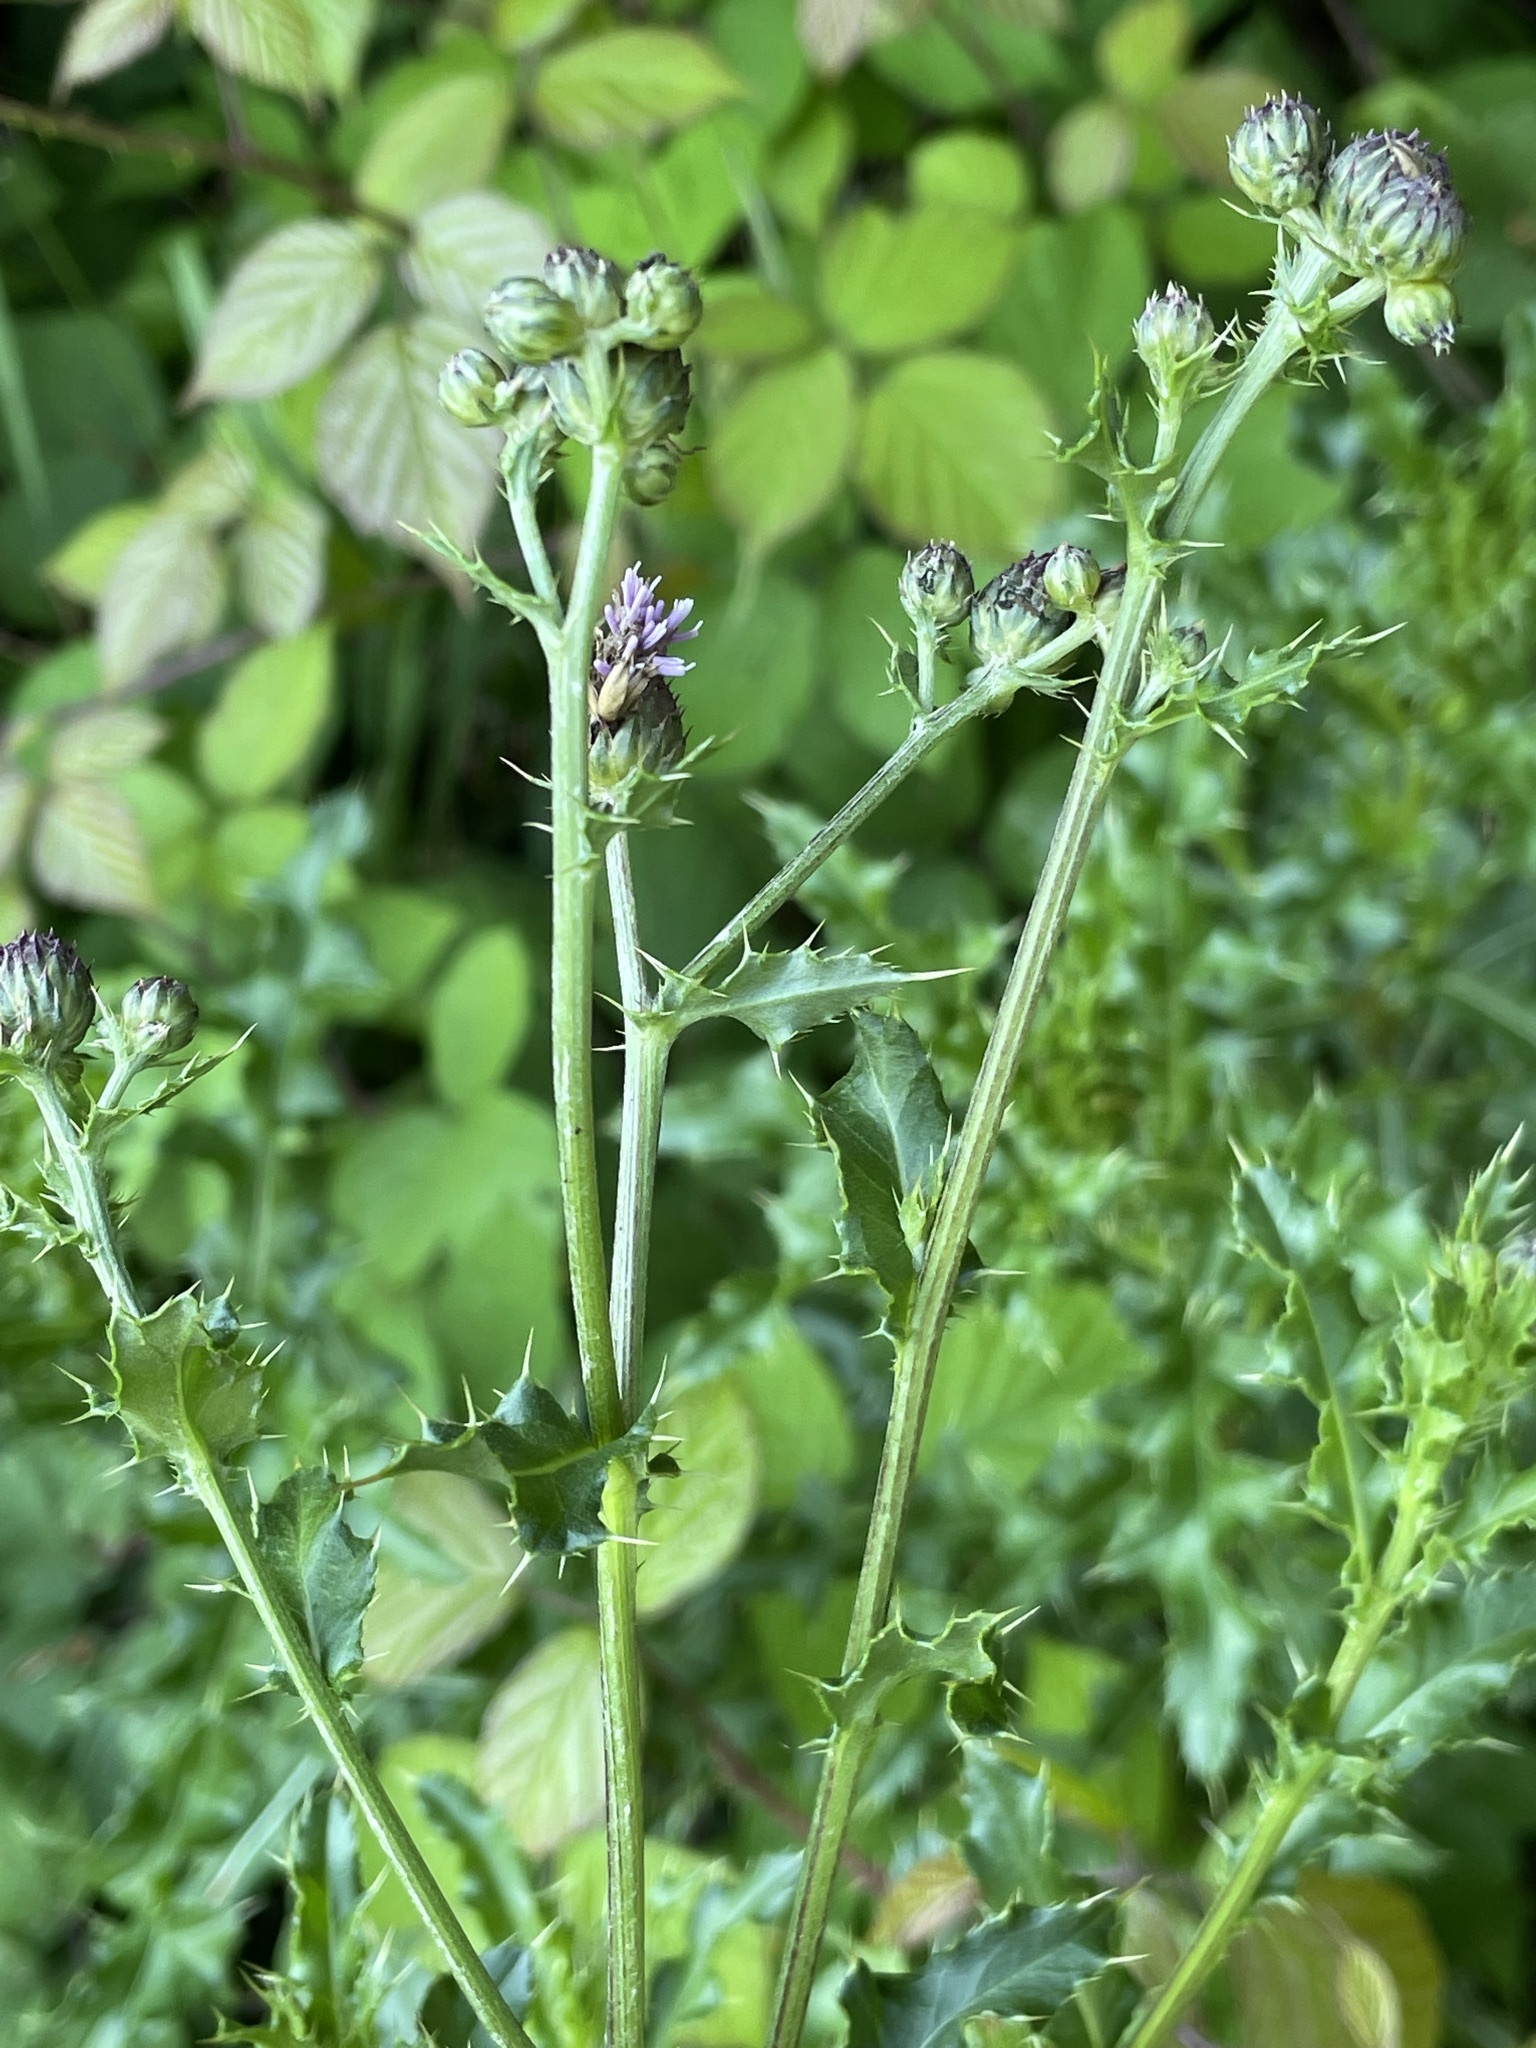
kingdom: Plantae
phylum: Tracheophyta
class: Magnoliopsida
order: Asterales
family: Asteraceae
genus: Cirsium
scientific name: Cirsium arvense
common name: Creeping thistle
